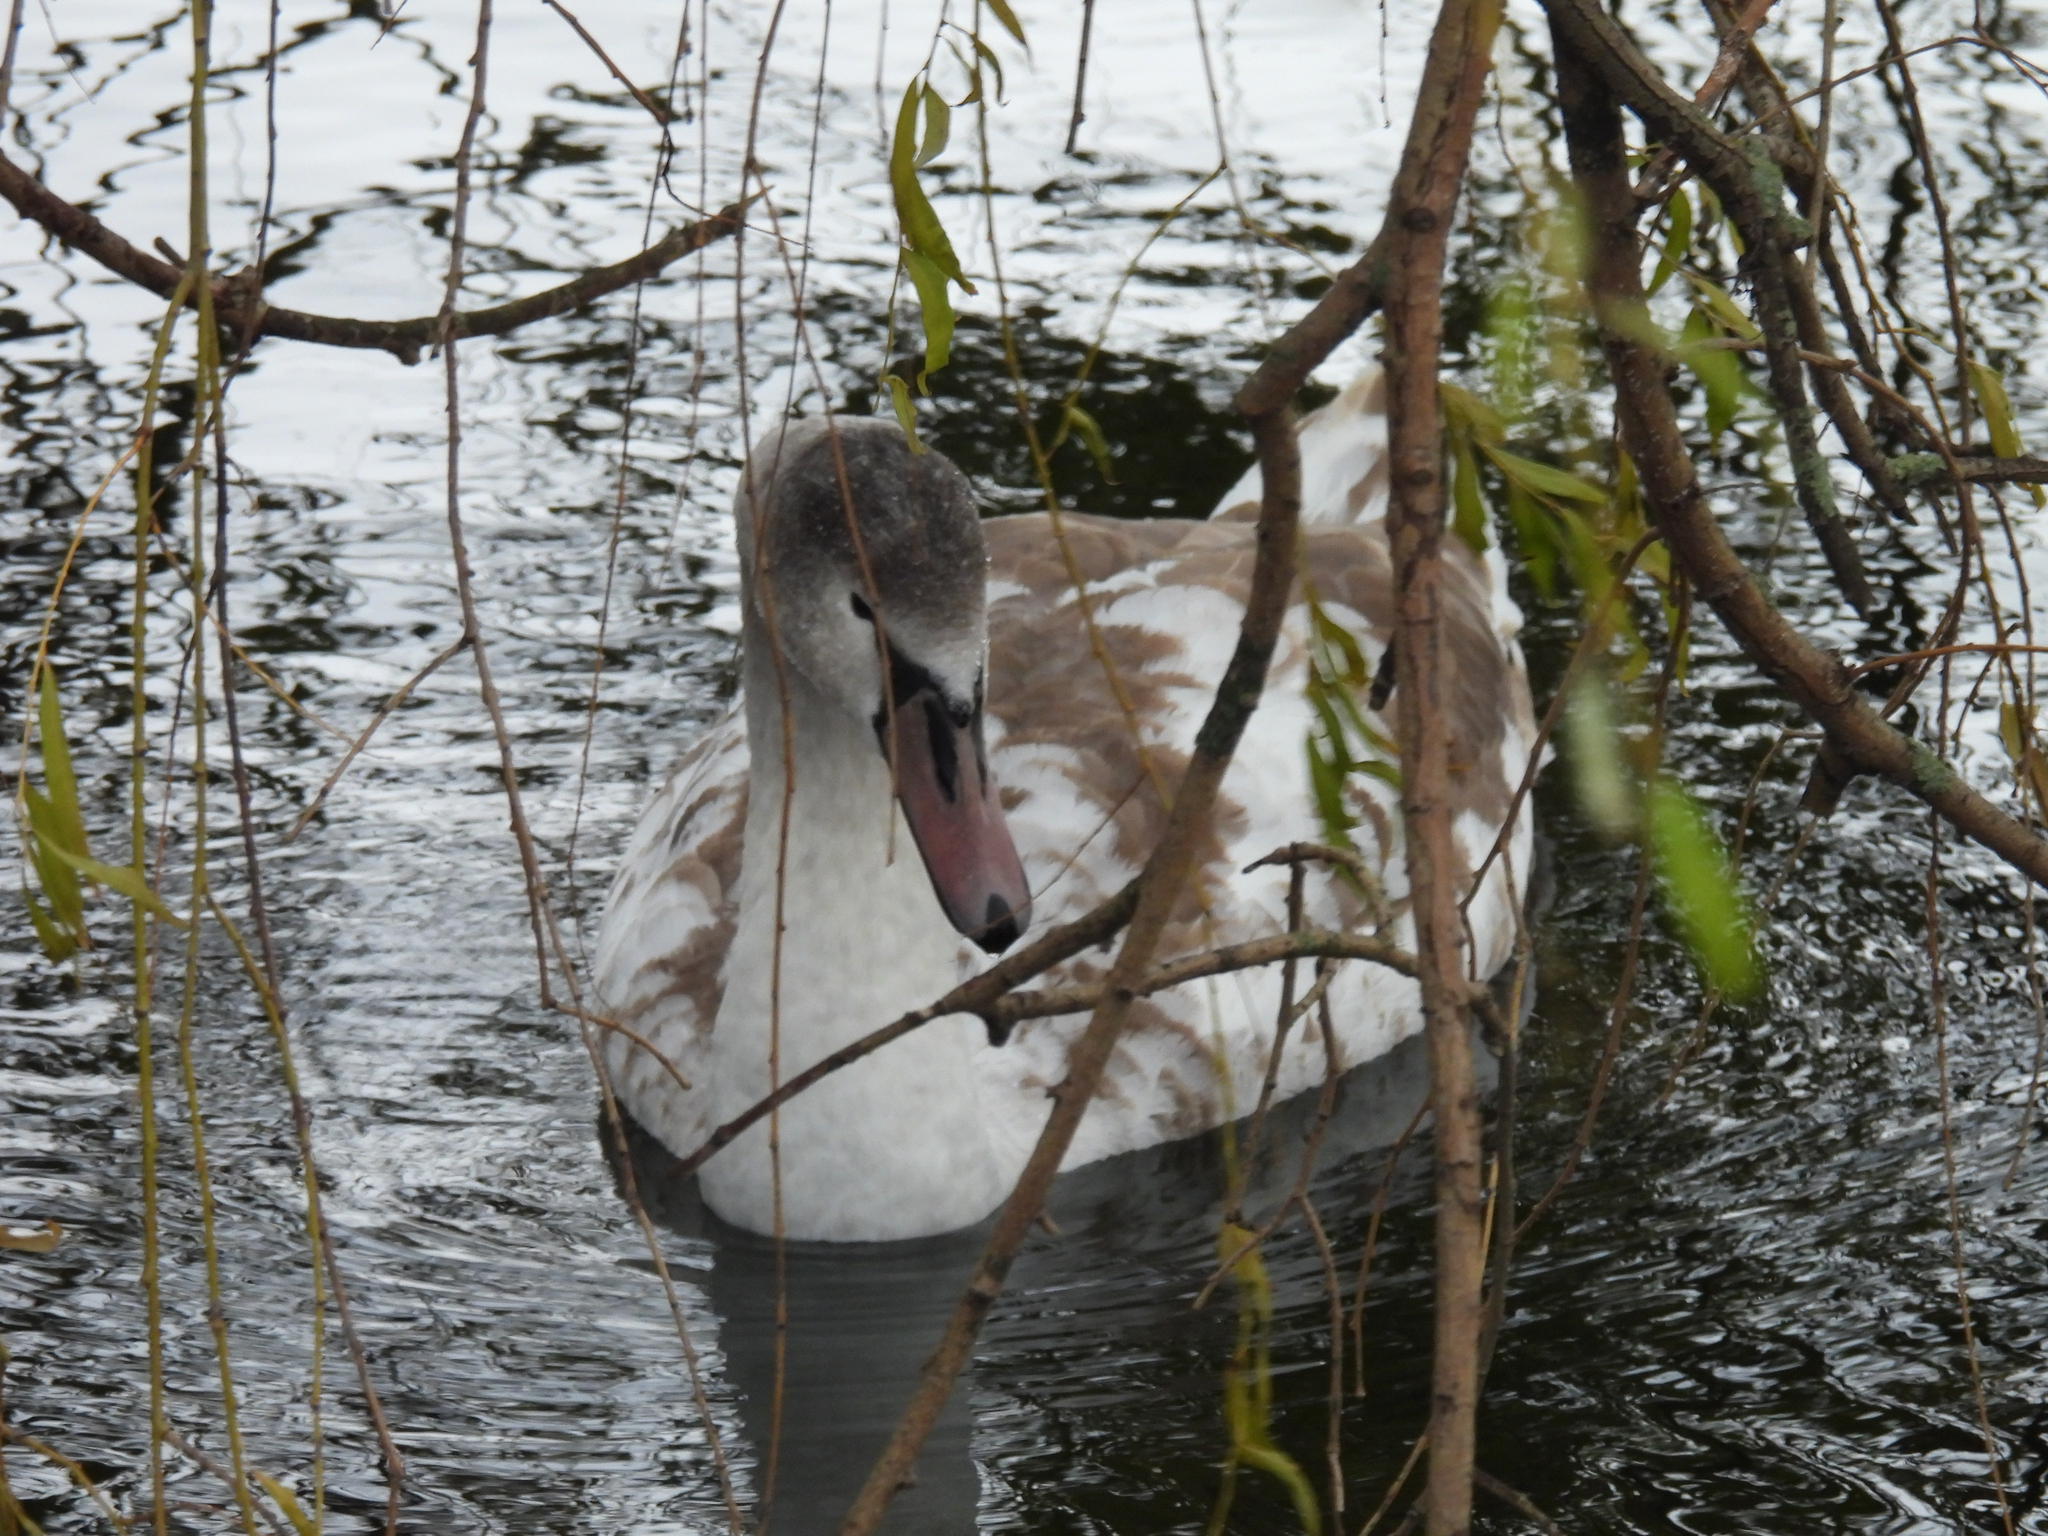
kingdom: Animalia
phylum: Chordata
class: Aves
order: Anseriformes
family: Anatidae
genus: Cygnus
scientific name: Cygnus olor
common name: Mute swan
